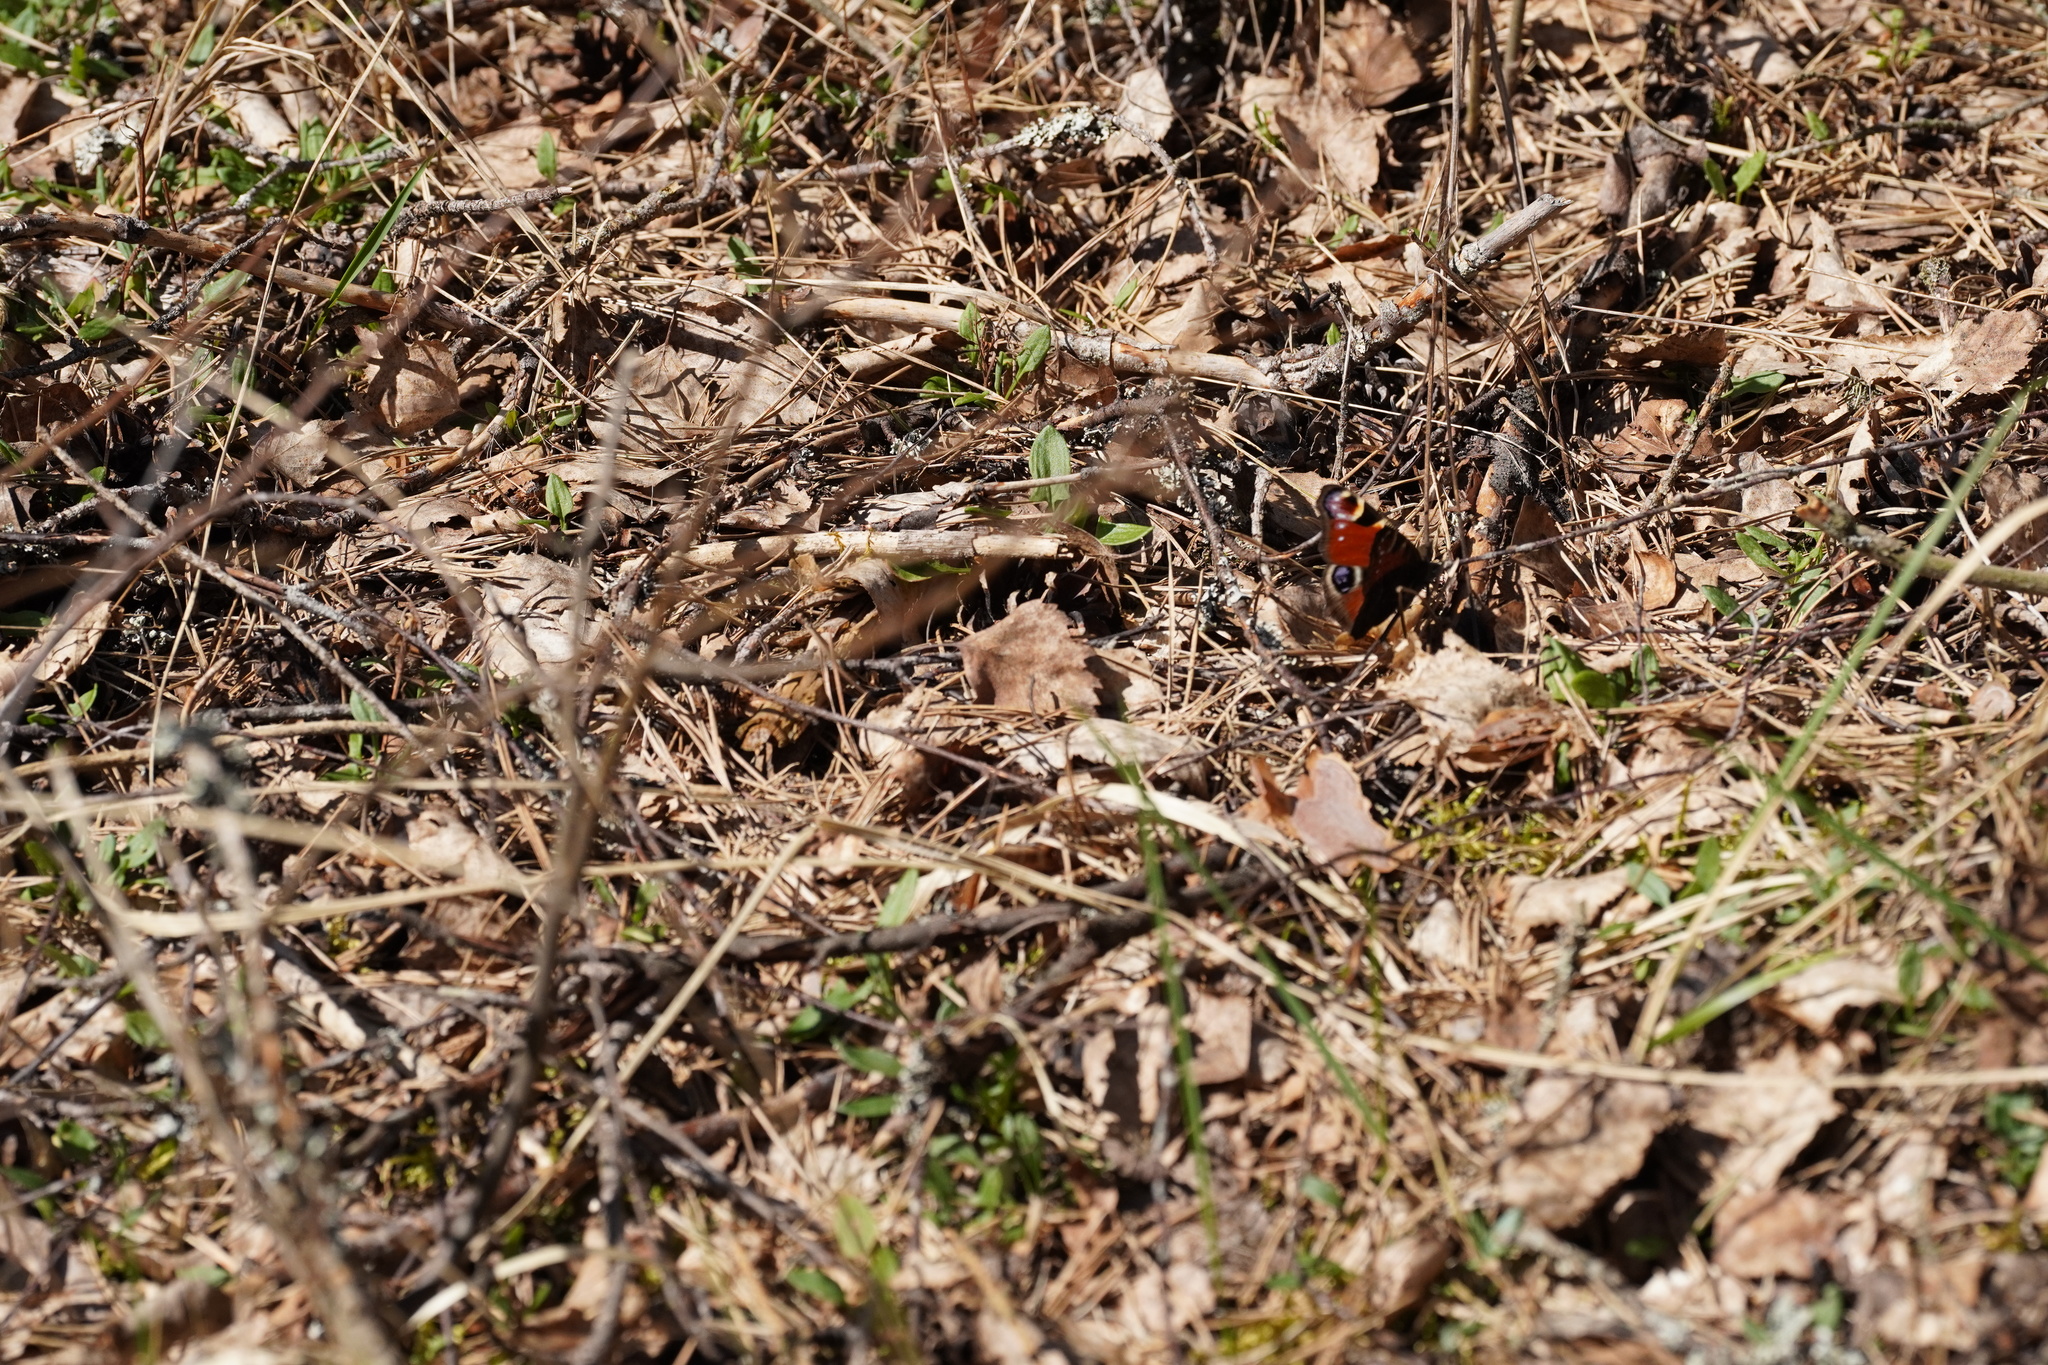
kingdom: Animalia
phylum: Arthropoda
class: Insecta
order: Lepidoptera
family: Nymphalidae
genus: Aglais
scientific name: Aglais io
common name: Peacock
